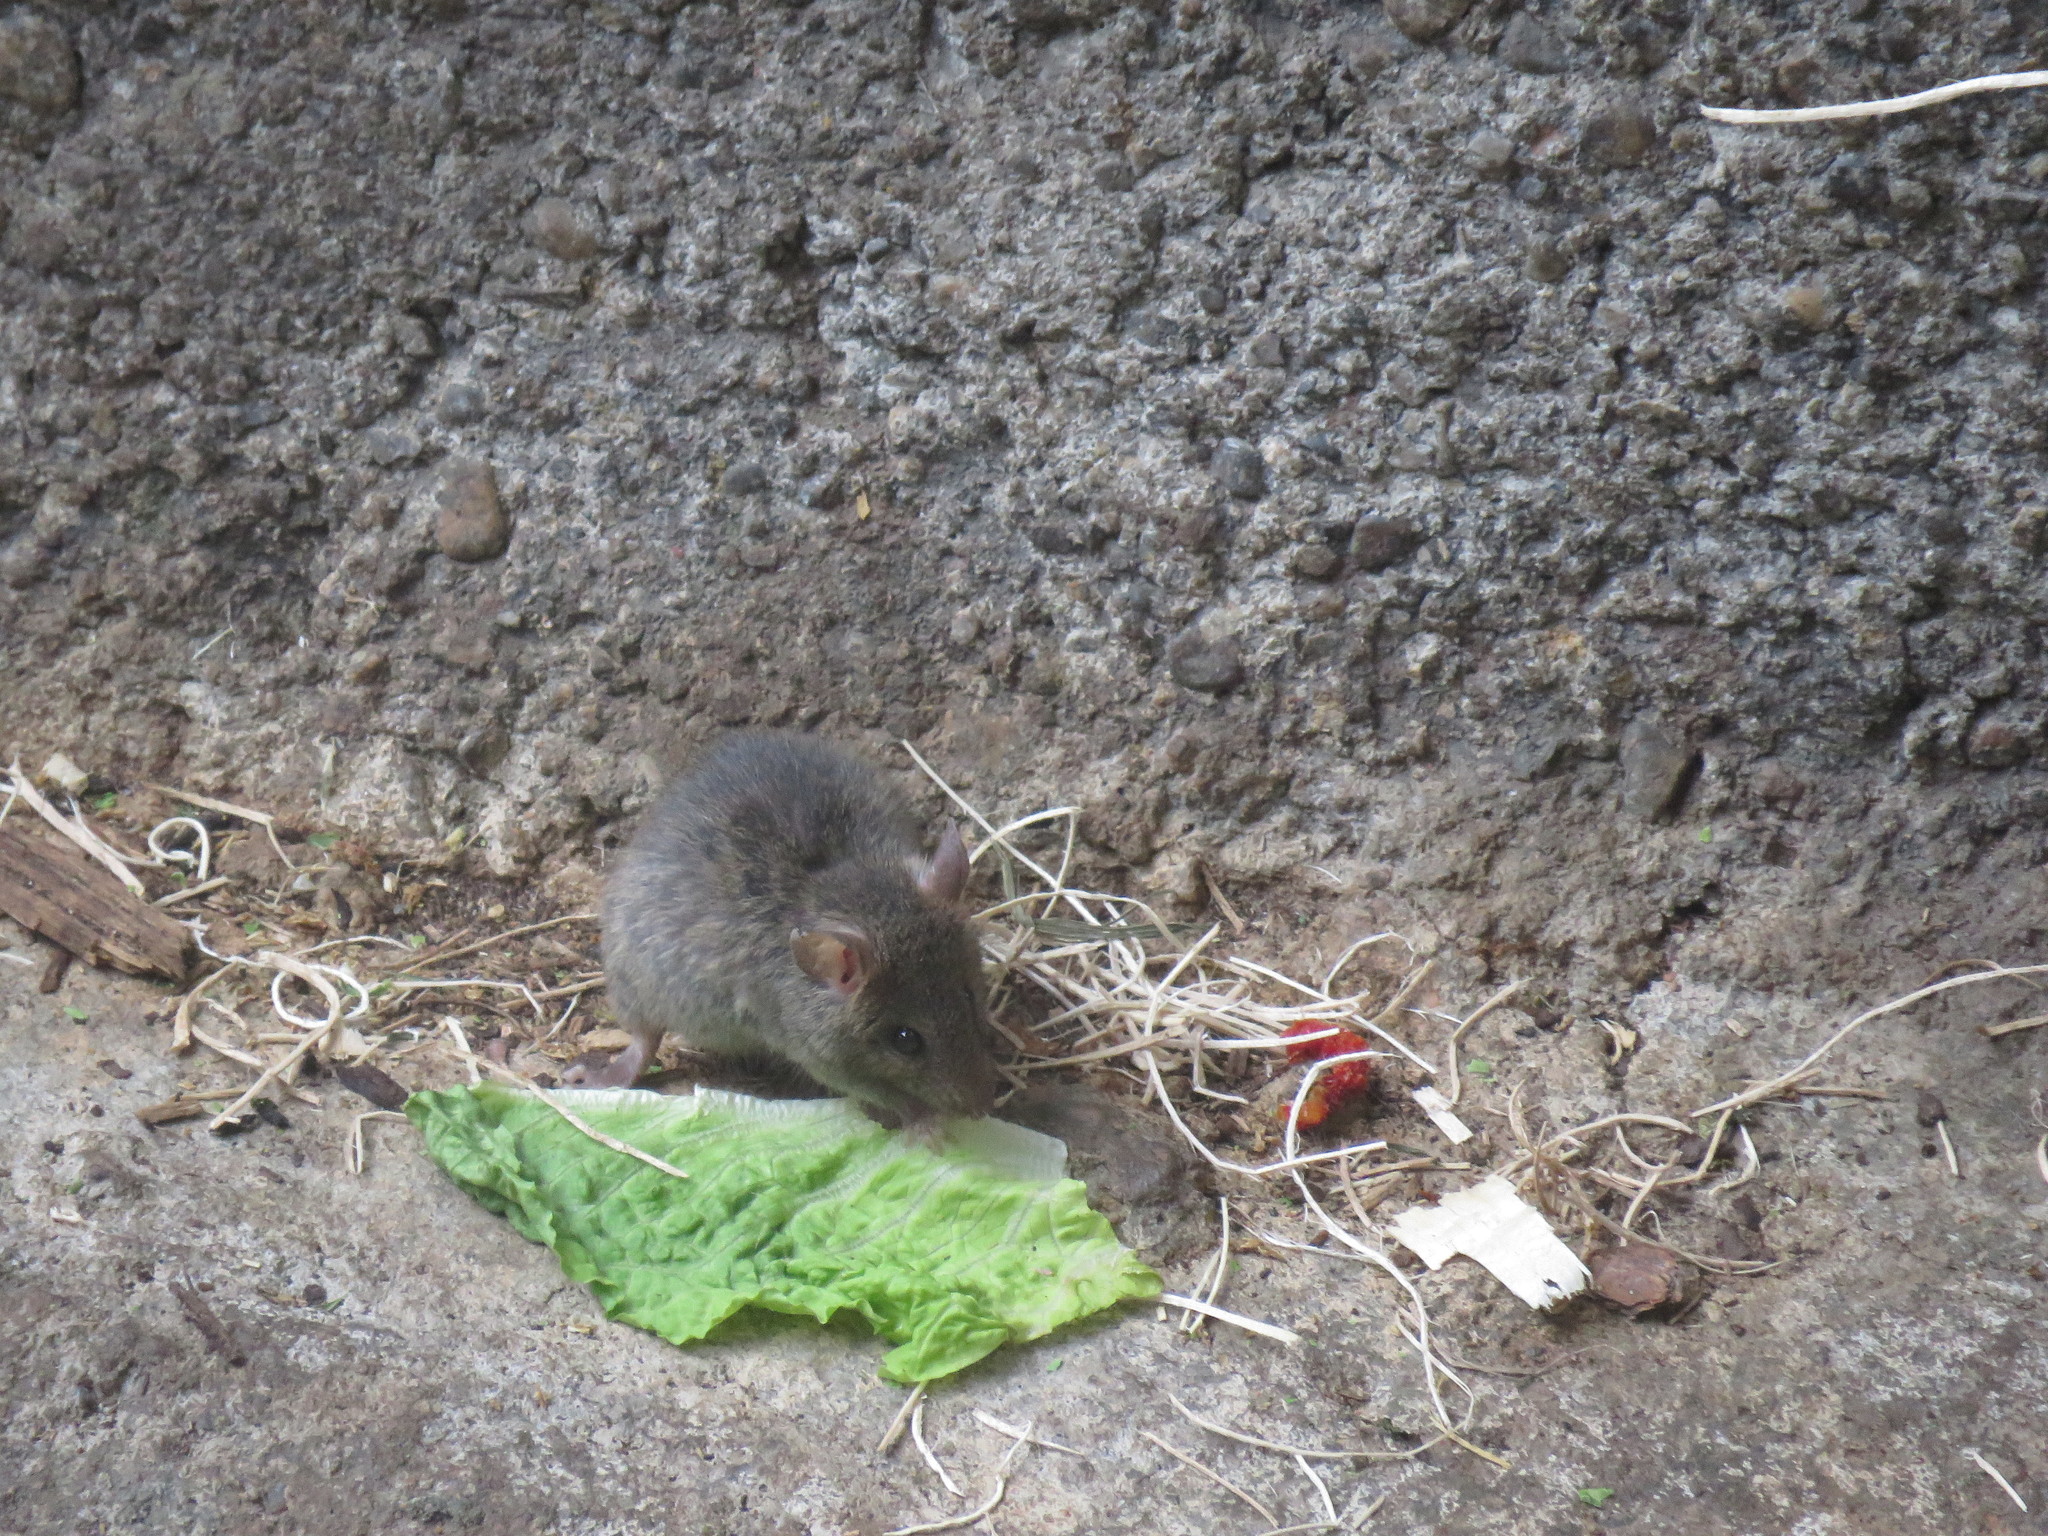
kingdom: Animalia
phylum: Chordata
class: Mammalia
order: Rodentia
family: Muridae
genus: Mus
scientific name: Mus musculus
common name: House mouse
